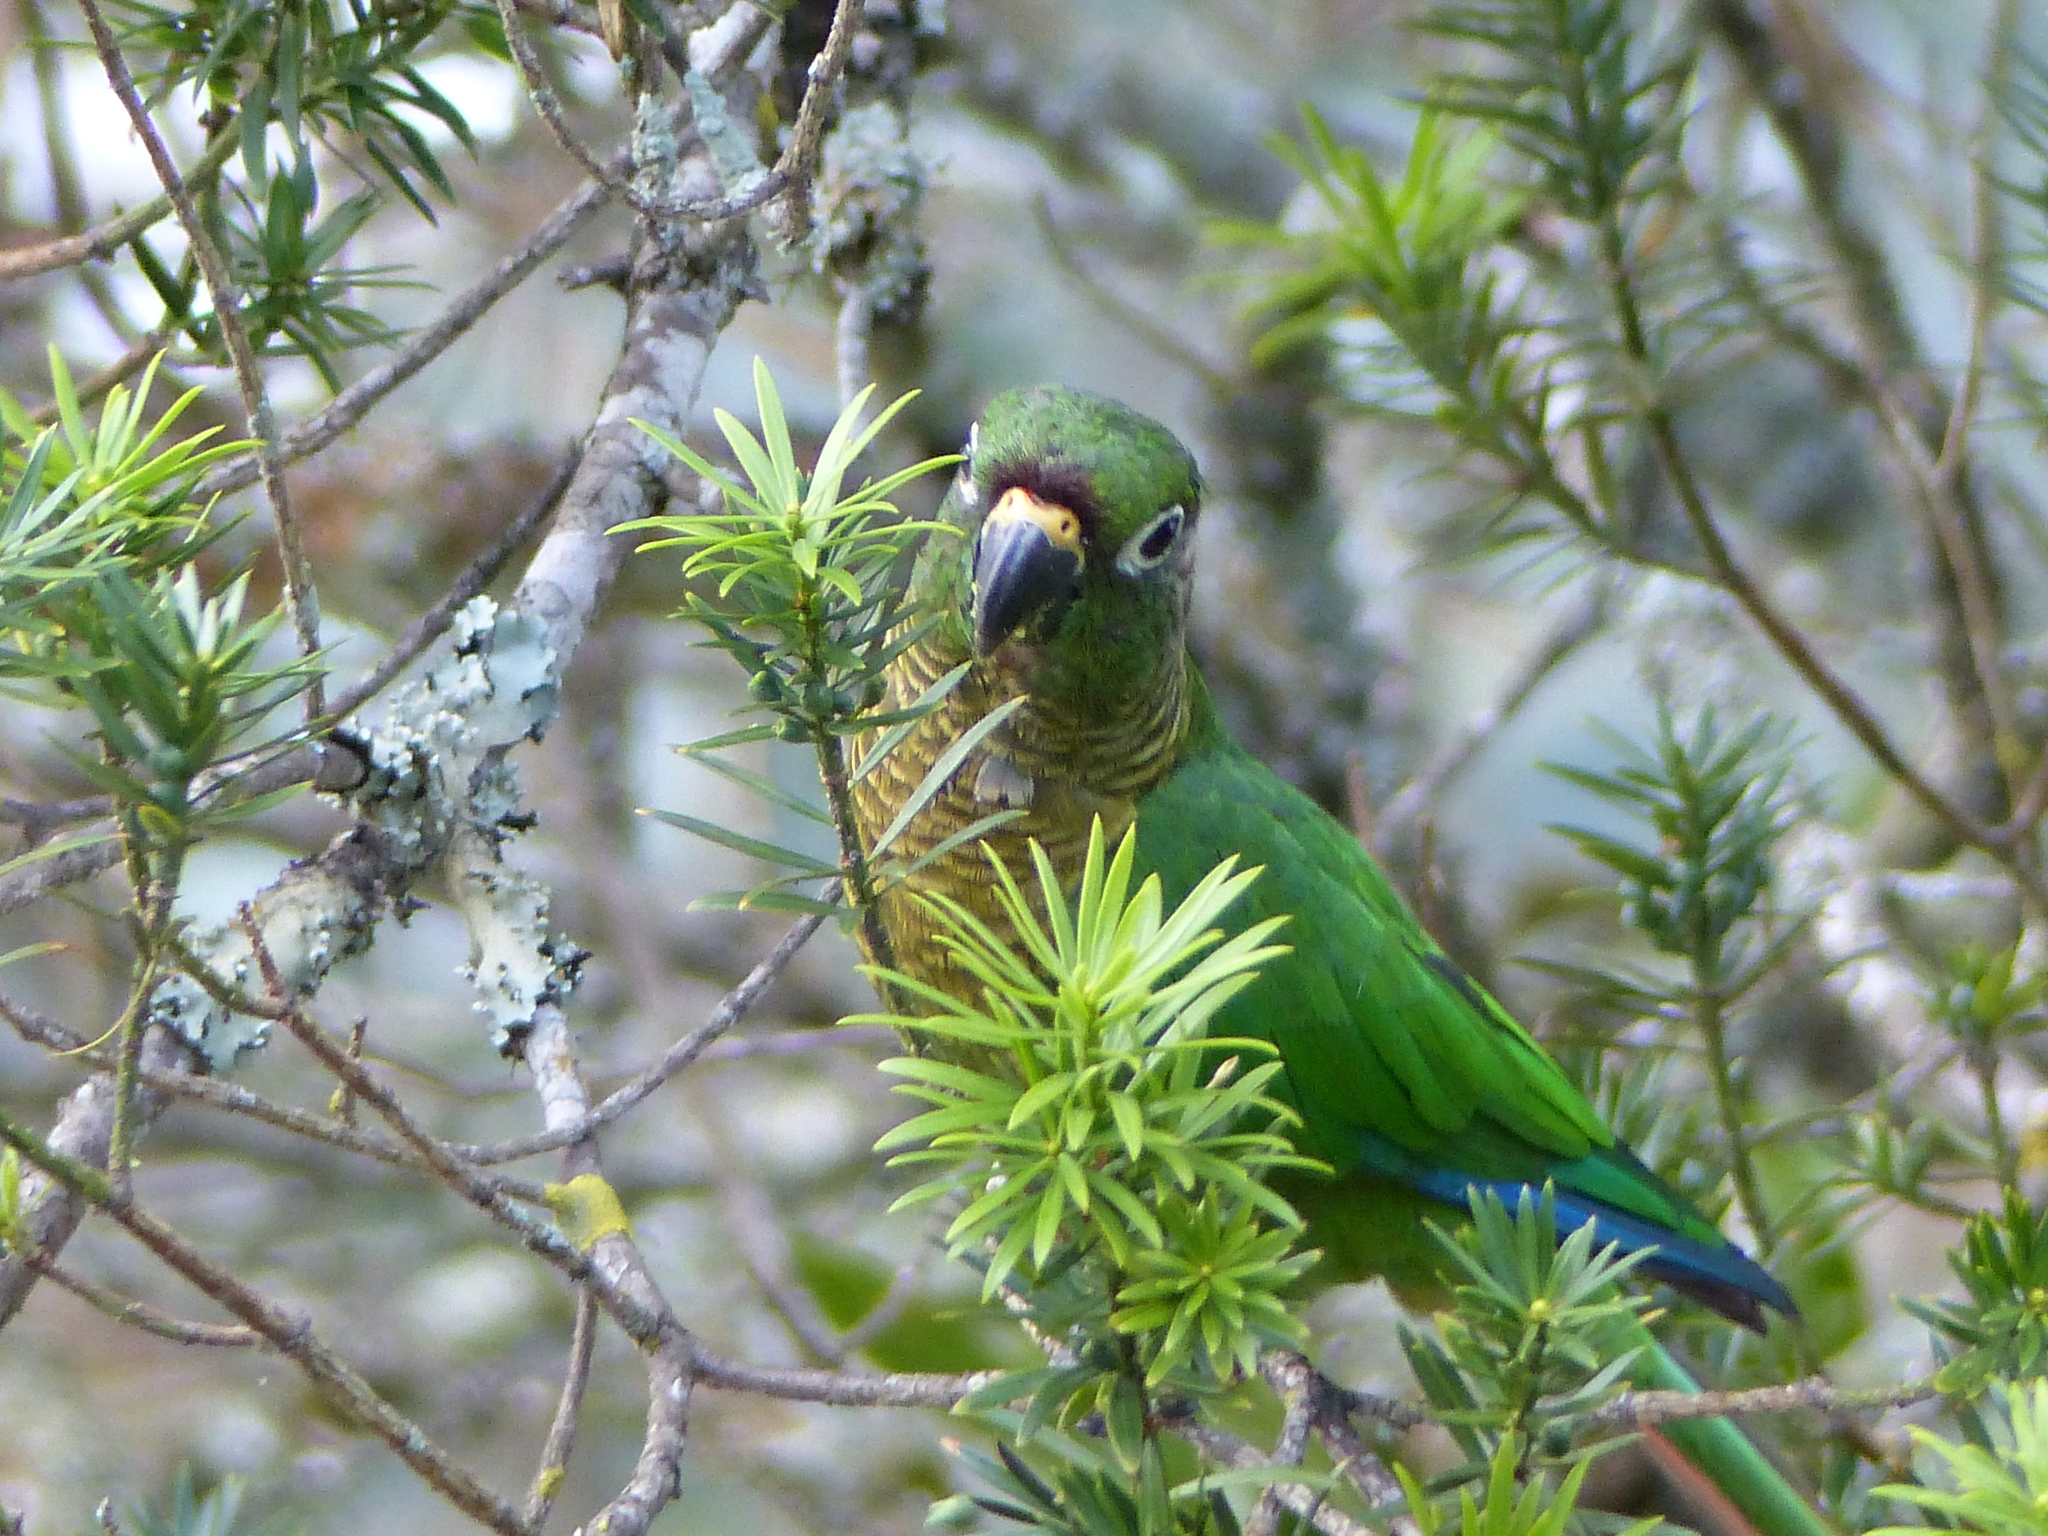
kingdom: Animalia
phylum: Chordata
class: Aves
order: Psittaciformes
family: Psittacidae
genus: Pyrrhura
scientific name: Pyrrhura frontalis
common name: Maroon-bellied parakeet
